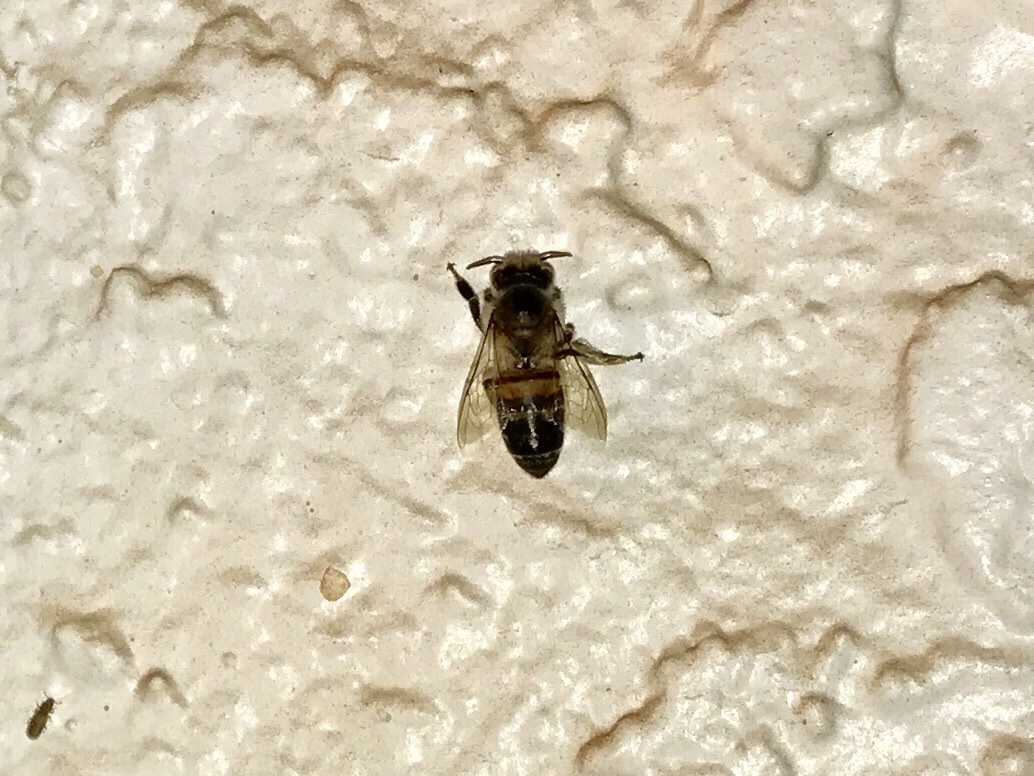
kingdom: Animalia
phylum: Arthropoda
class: Insecta
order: Hymenoptera
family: Apidae
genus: Apis
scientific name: Apis mellifera
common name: Honey bee
